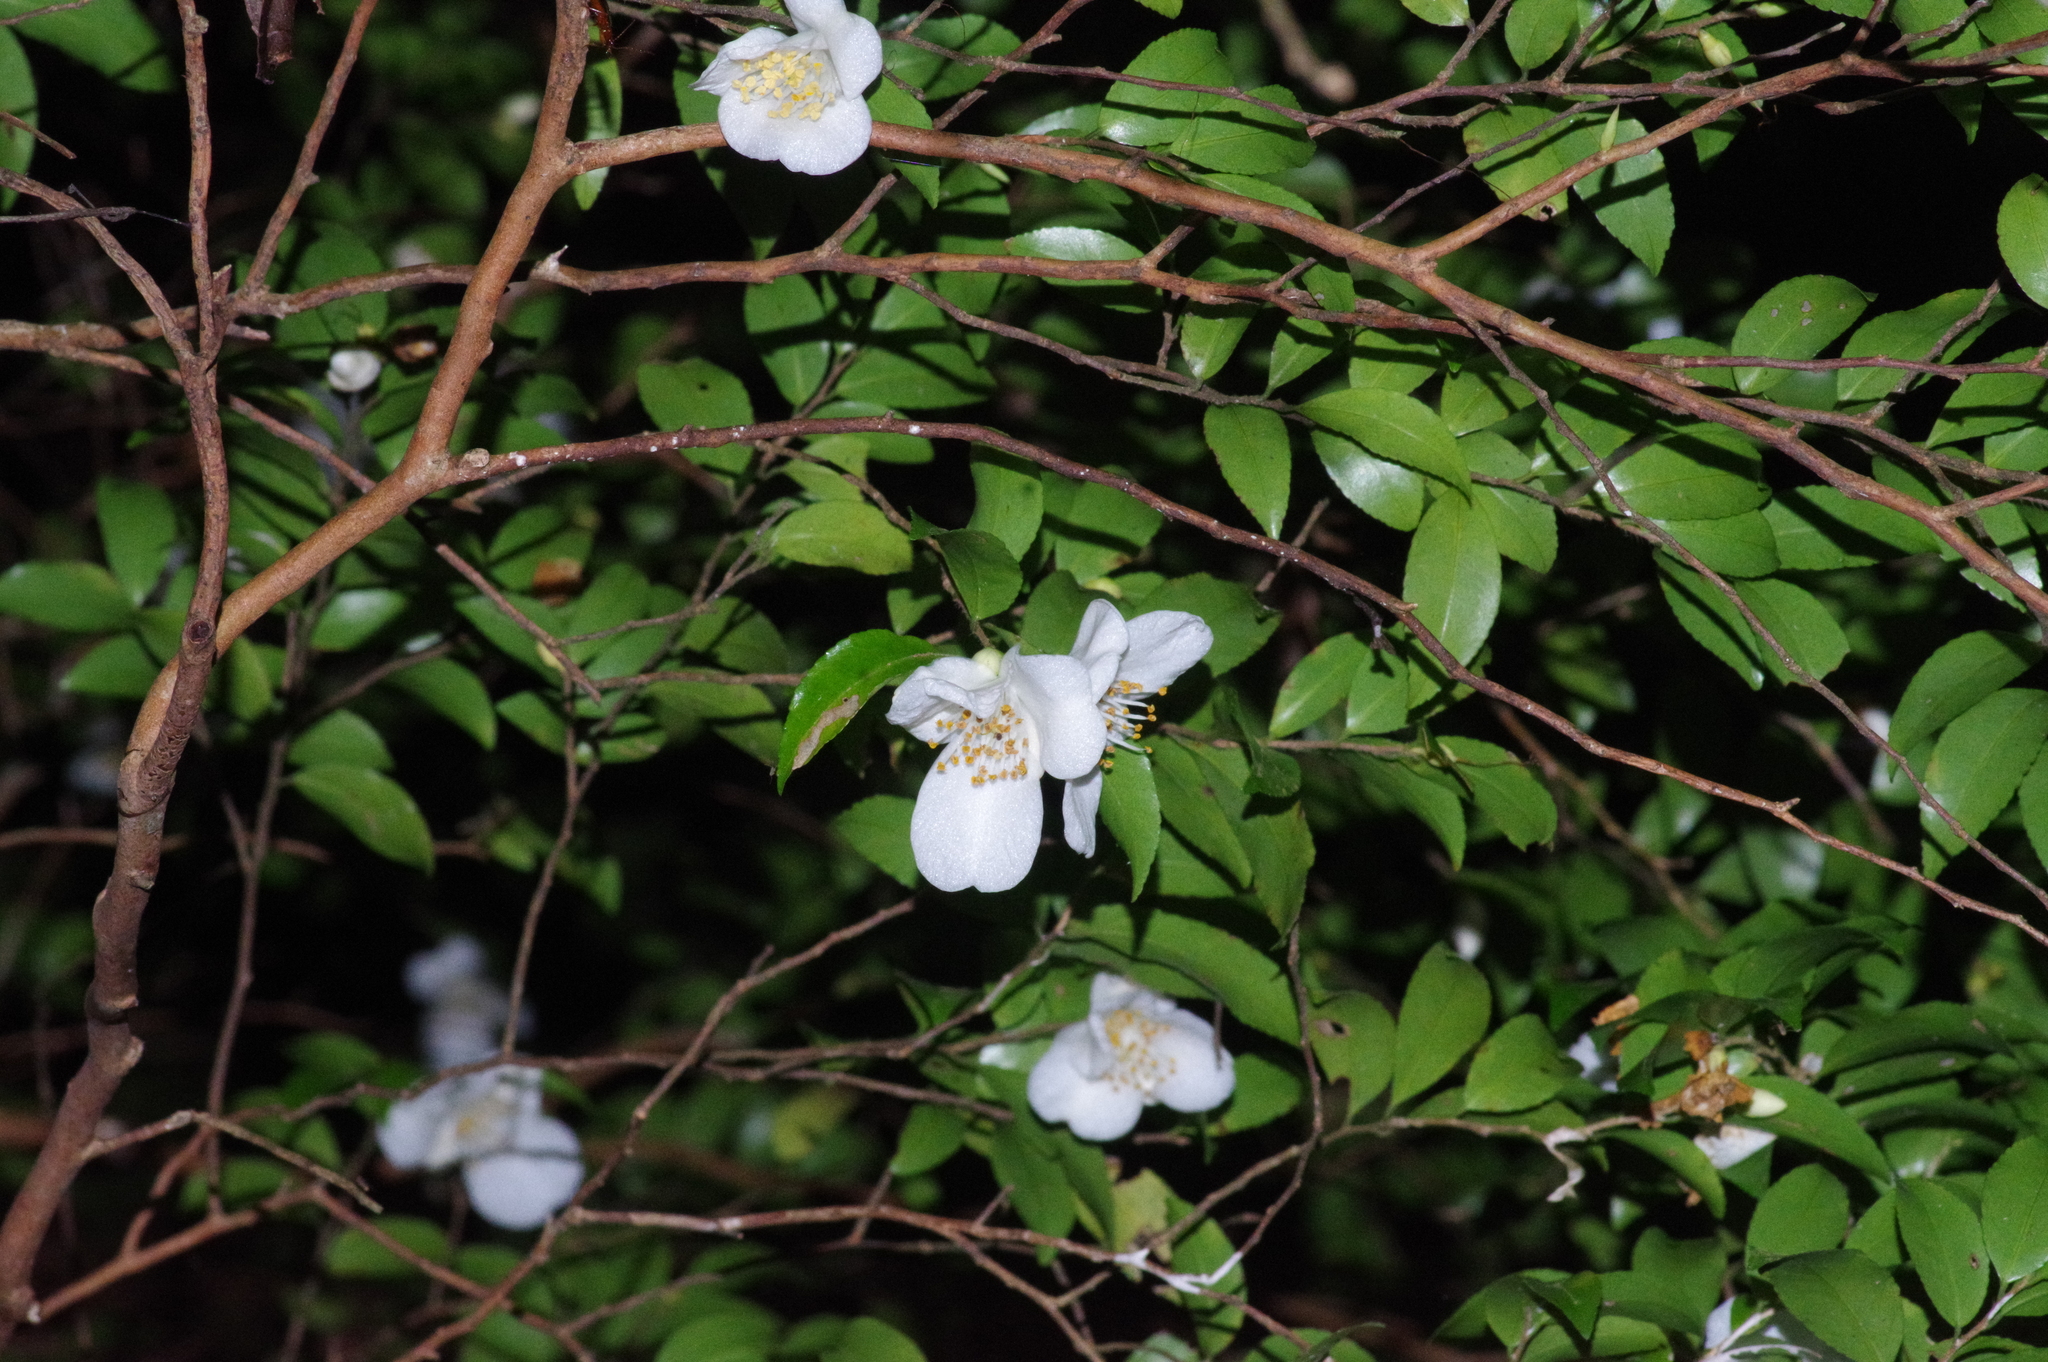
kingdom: Plantae
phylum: Tracheophyta
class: Magnoliopsida
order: Ericales
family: Theaceae
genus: Camellia
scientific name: Camellia lutchuensis
